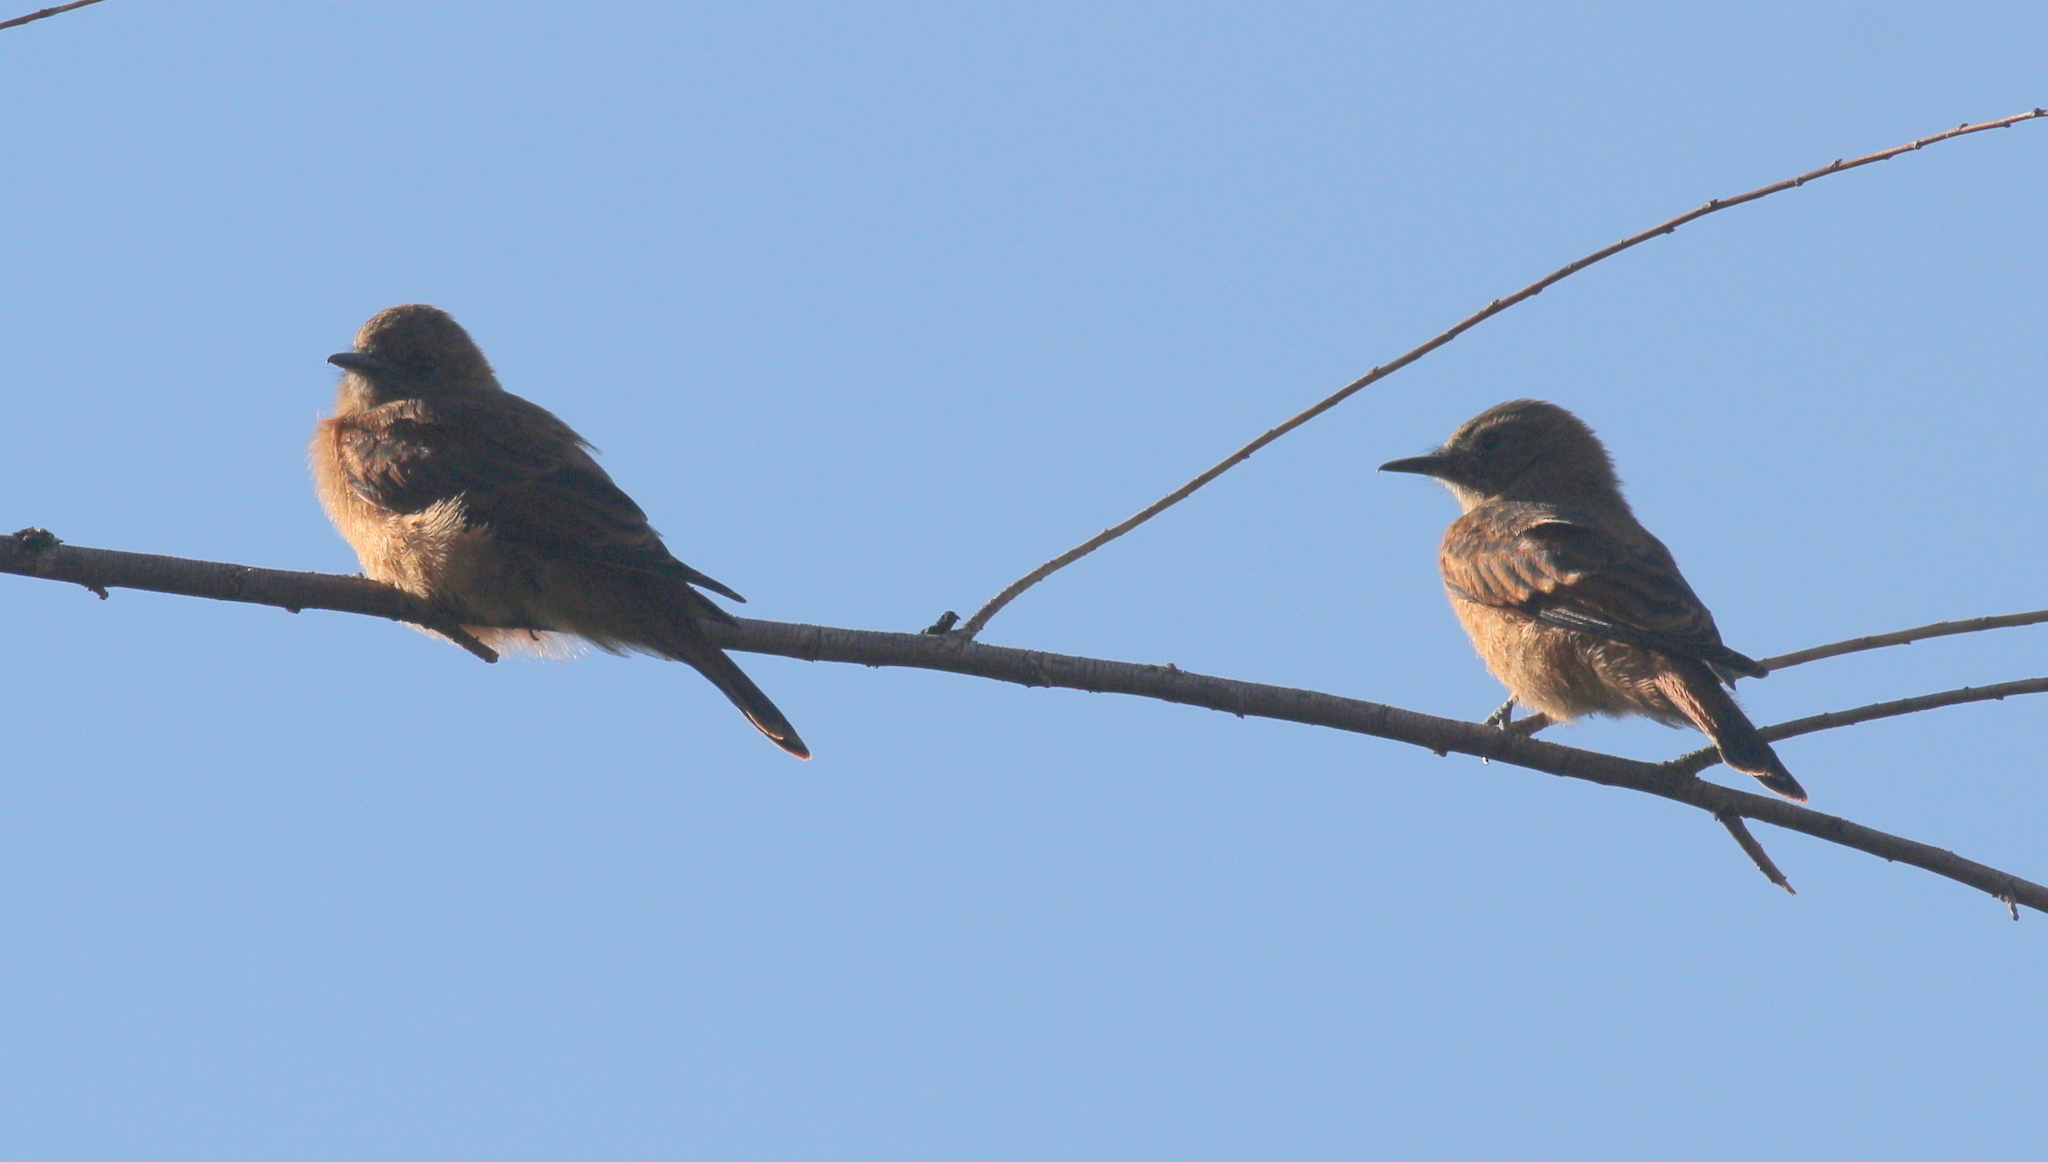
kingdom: Animalia
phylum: Chordata
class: Aves
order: Passeriformes
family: Tyrannidae
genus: Hirundinea
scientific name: Hirundinea ferruginea
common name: Cliff flycatcher
